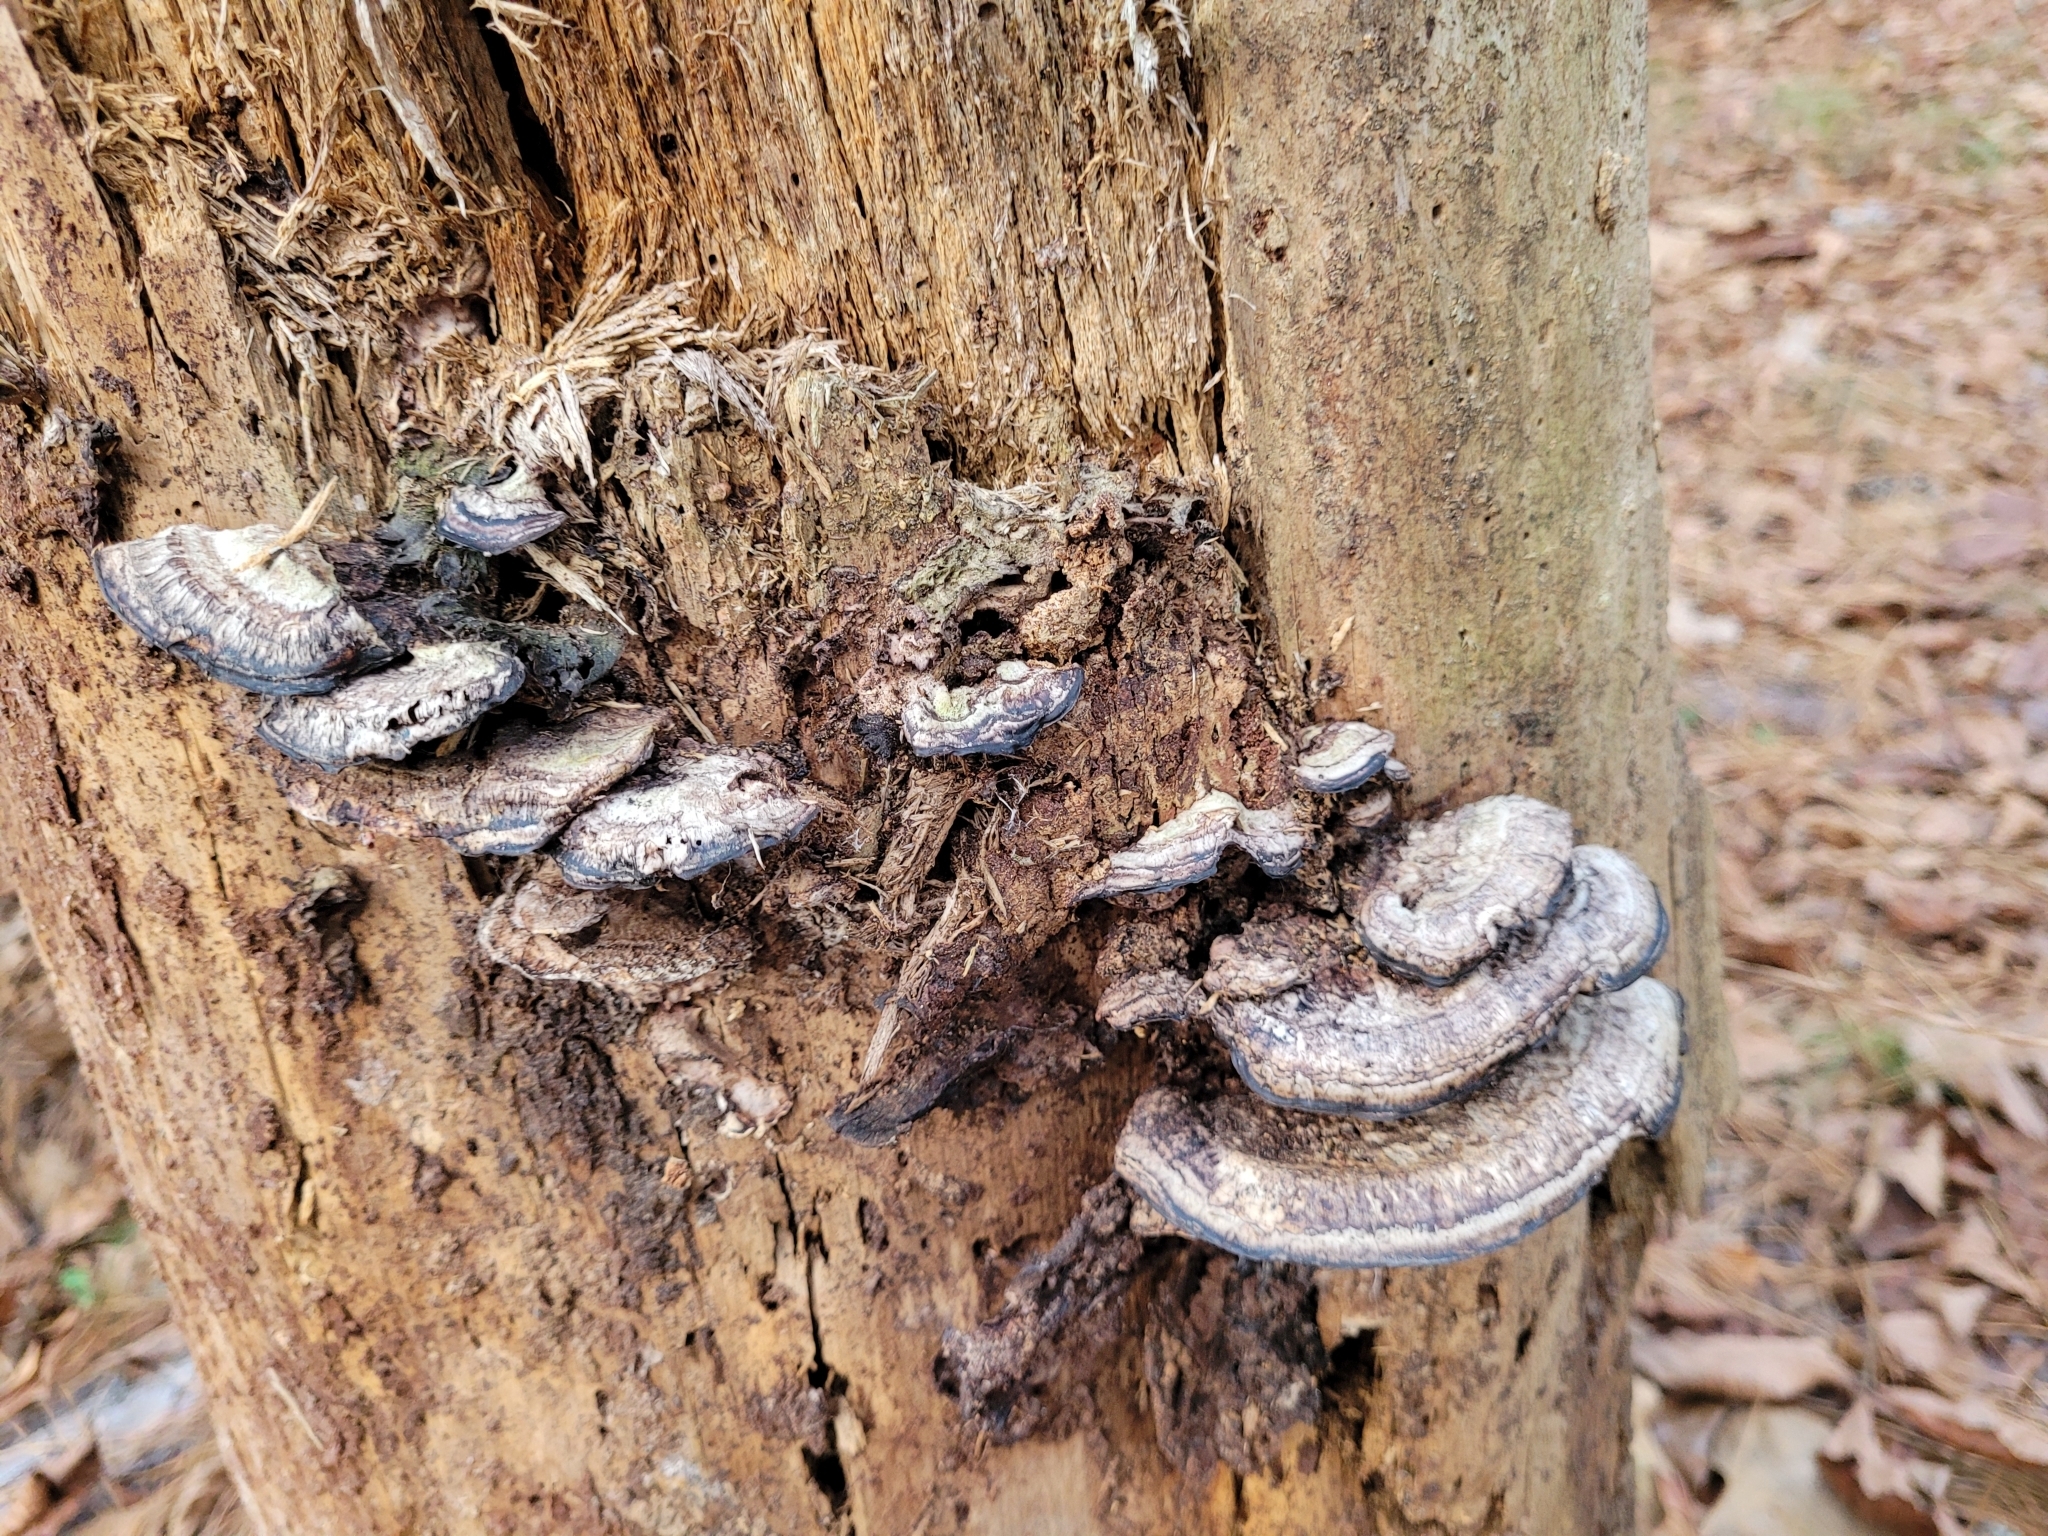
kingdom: Fungi
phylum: Basidiomycota
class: Agaricomycetes
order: Polyporales
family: Polyporaceae
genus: Ganoderma
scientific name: Ganoderma resinaceum
